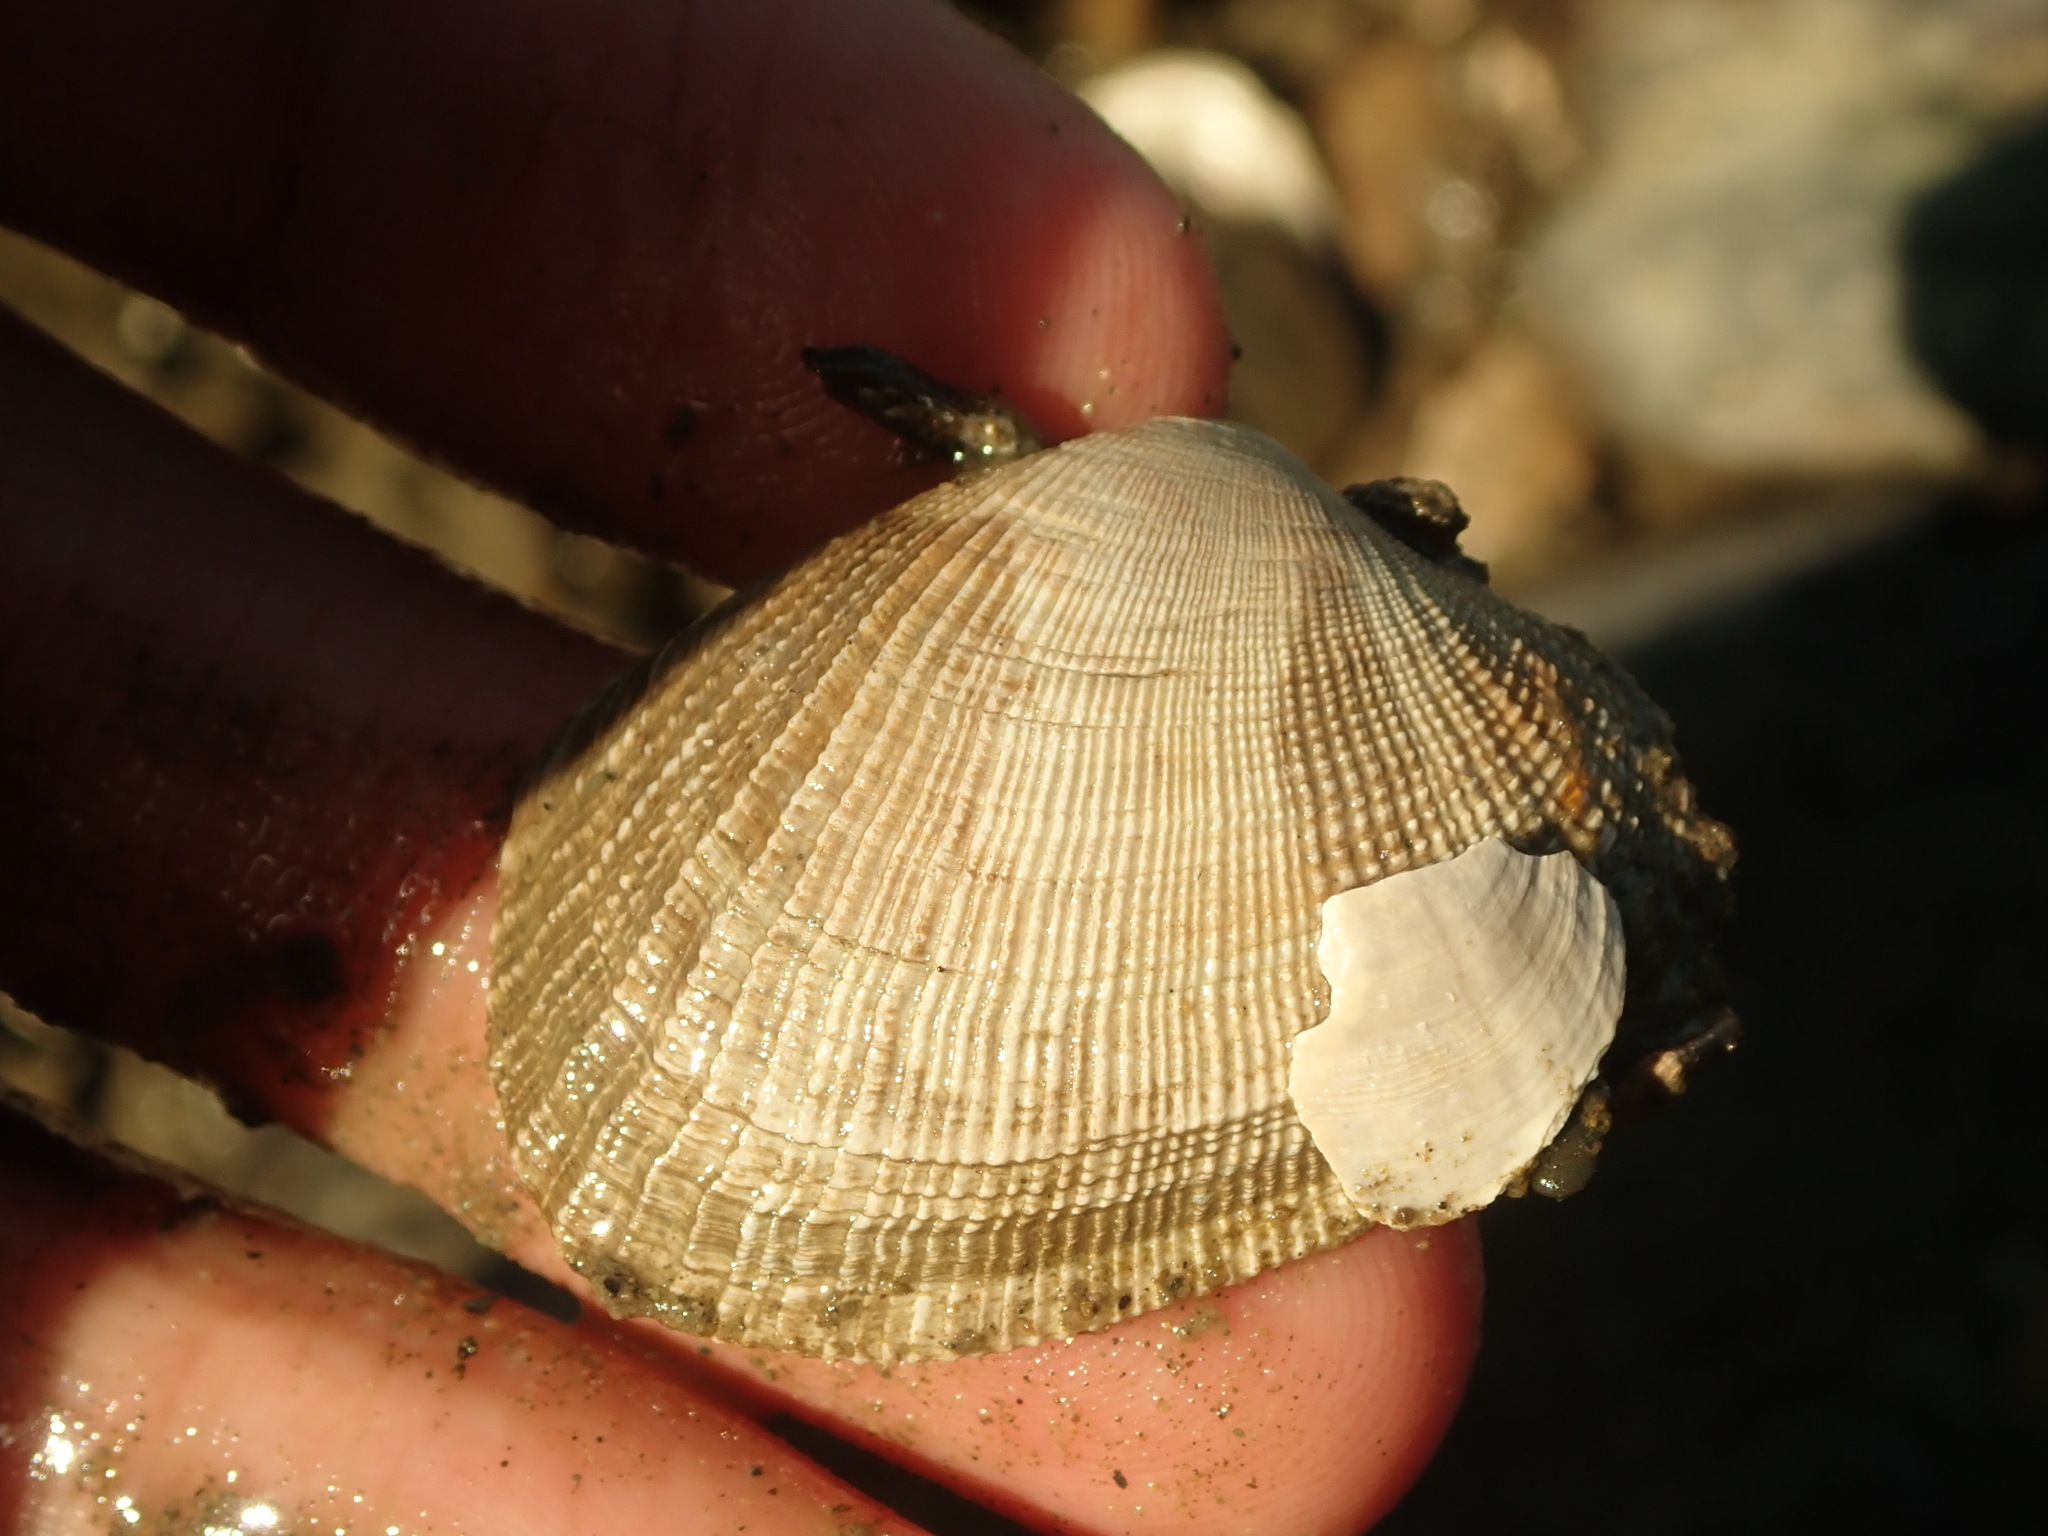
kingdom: Animalia
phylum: Mollusca
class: Bivalvia
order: Venerida
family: Veneridae
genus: Ruditapes
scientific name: Ruditapes philippinarum
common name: Manila clam
